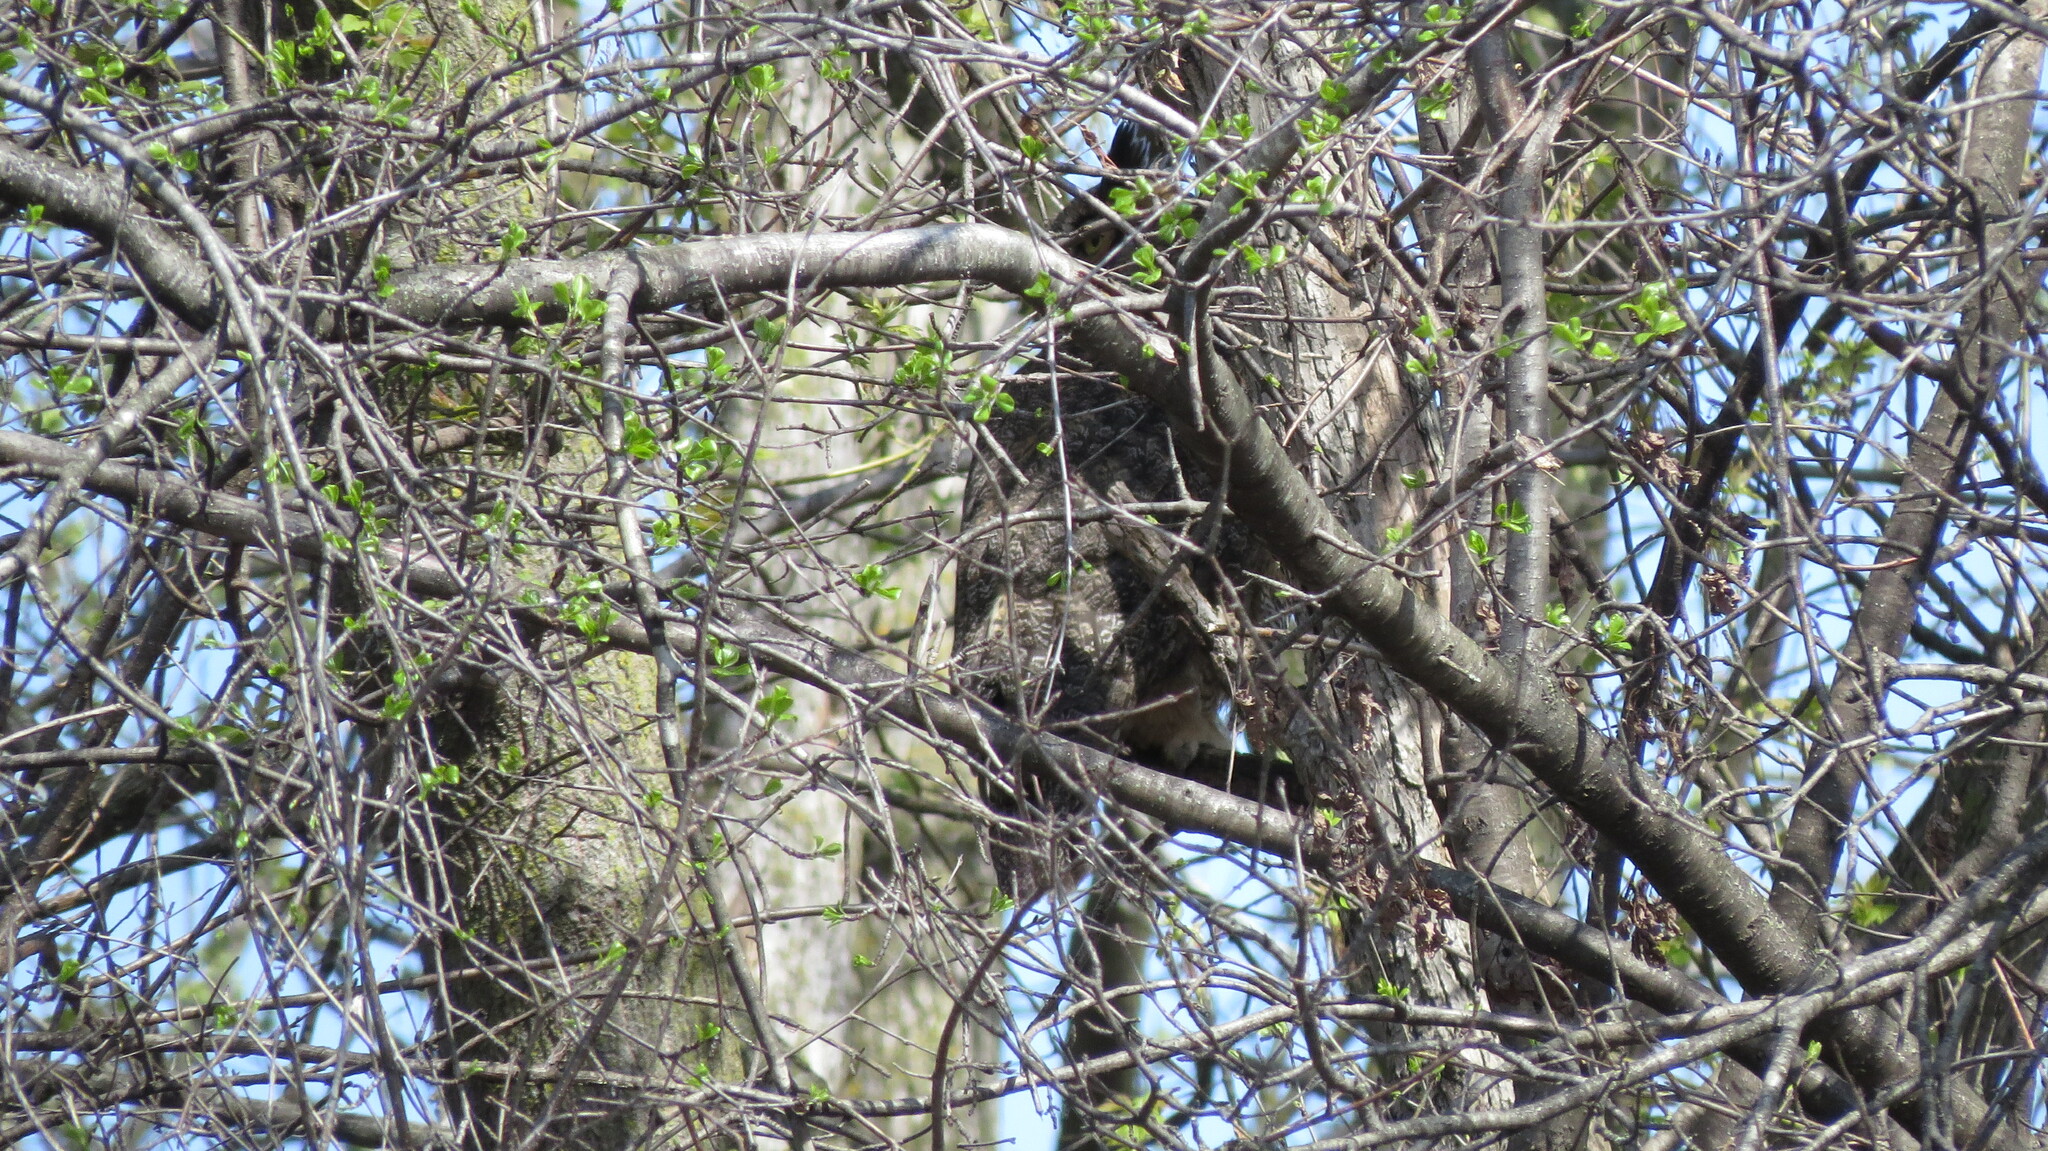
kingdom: Animalia
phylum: Chordata
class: Aves
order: Strigiformes
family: Strigidae
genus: Bubo
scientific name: Bubo virginianus
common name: Great horned owl
